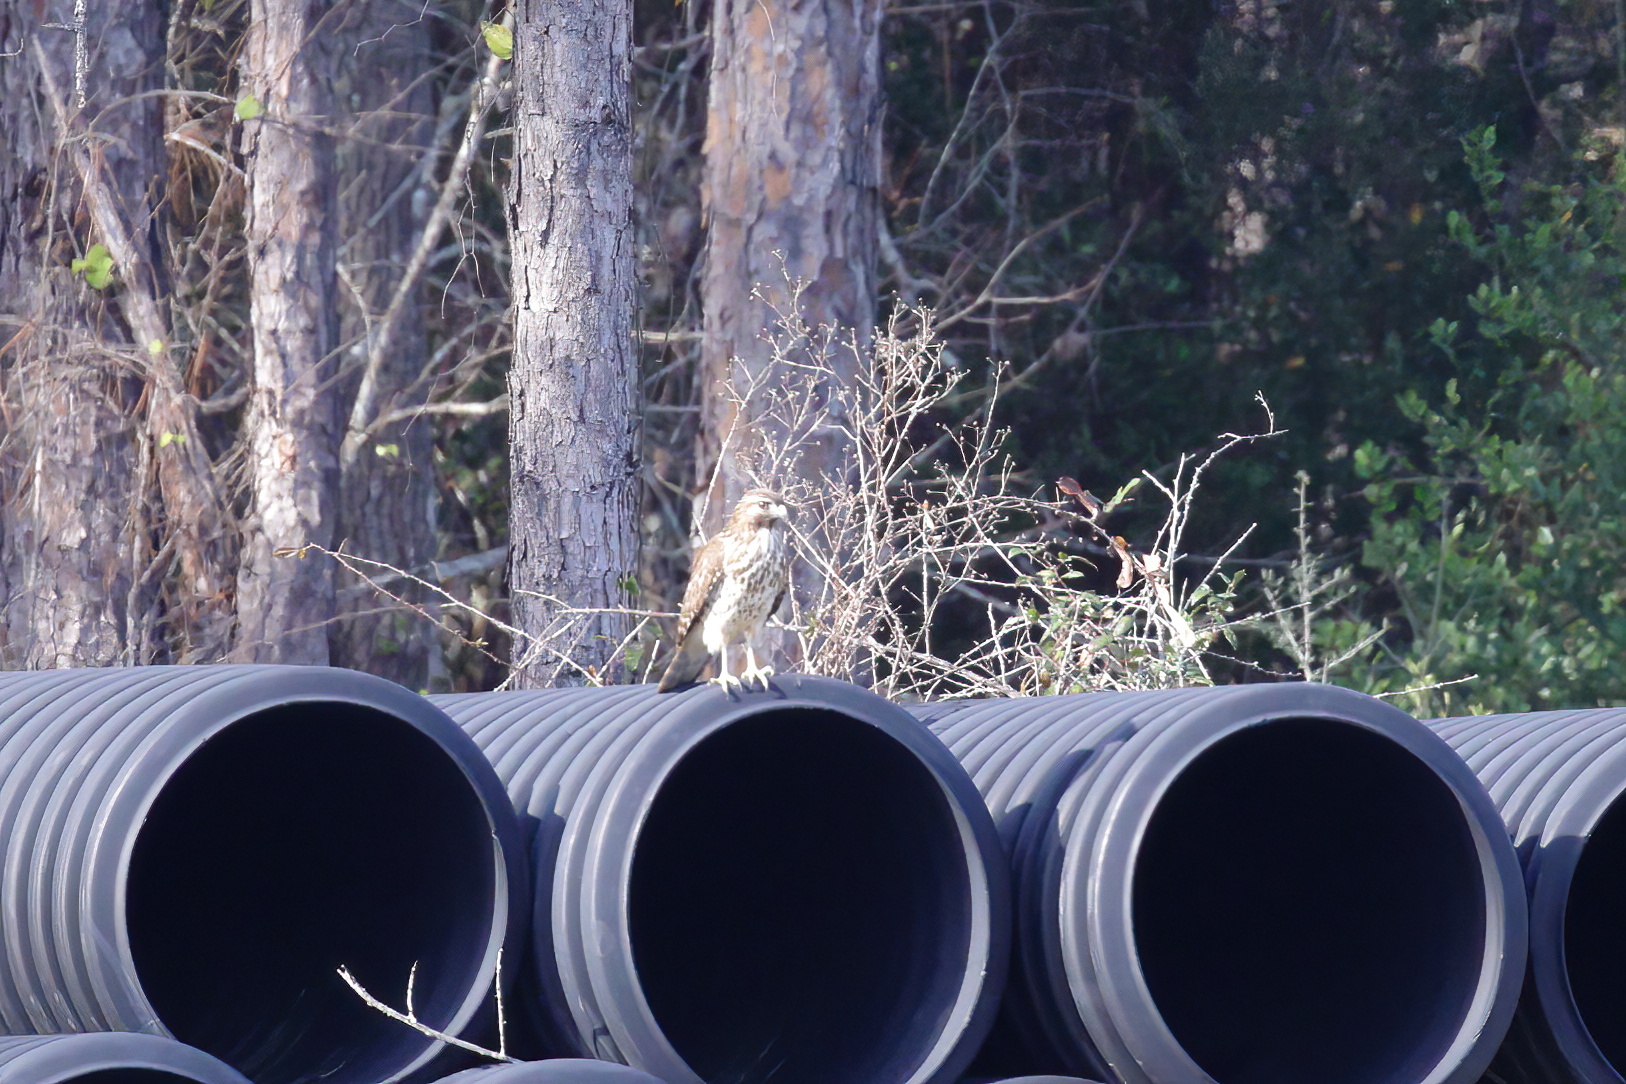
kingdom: Animalia
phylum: Chordata
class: Aves
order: Accipitriformes
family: Accipitridae
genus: Buteo
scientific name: Buteo lineatus
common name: Red-shouldered hawk
